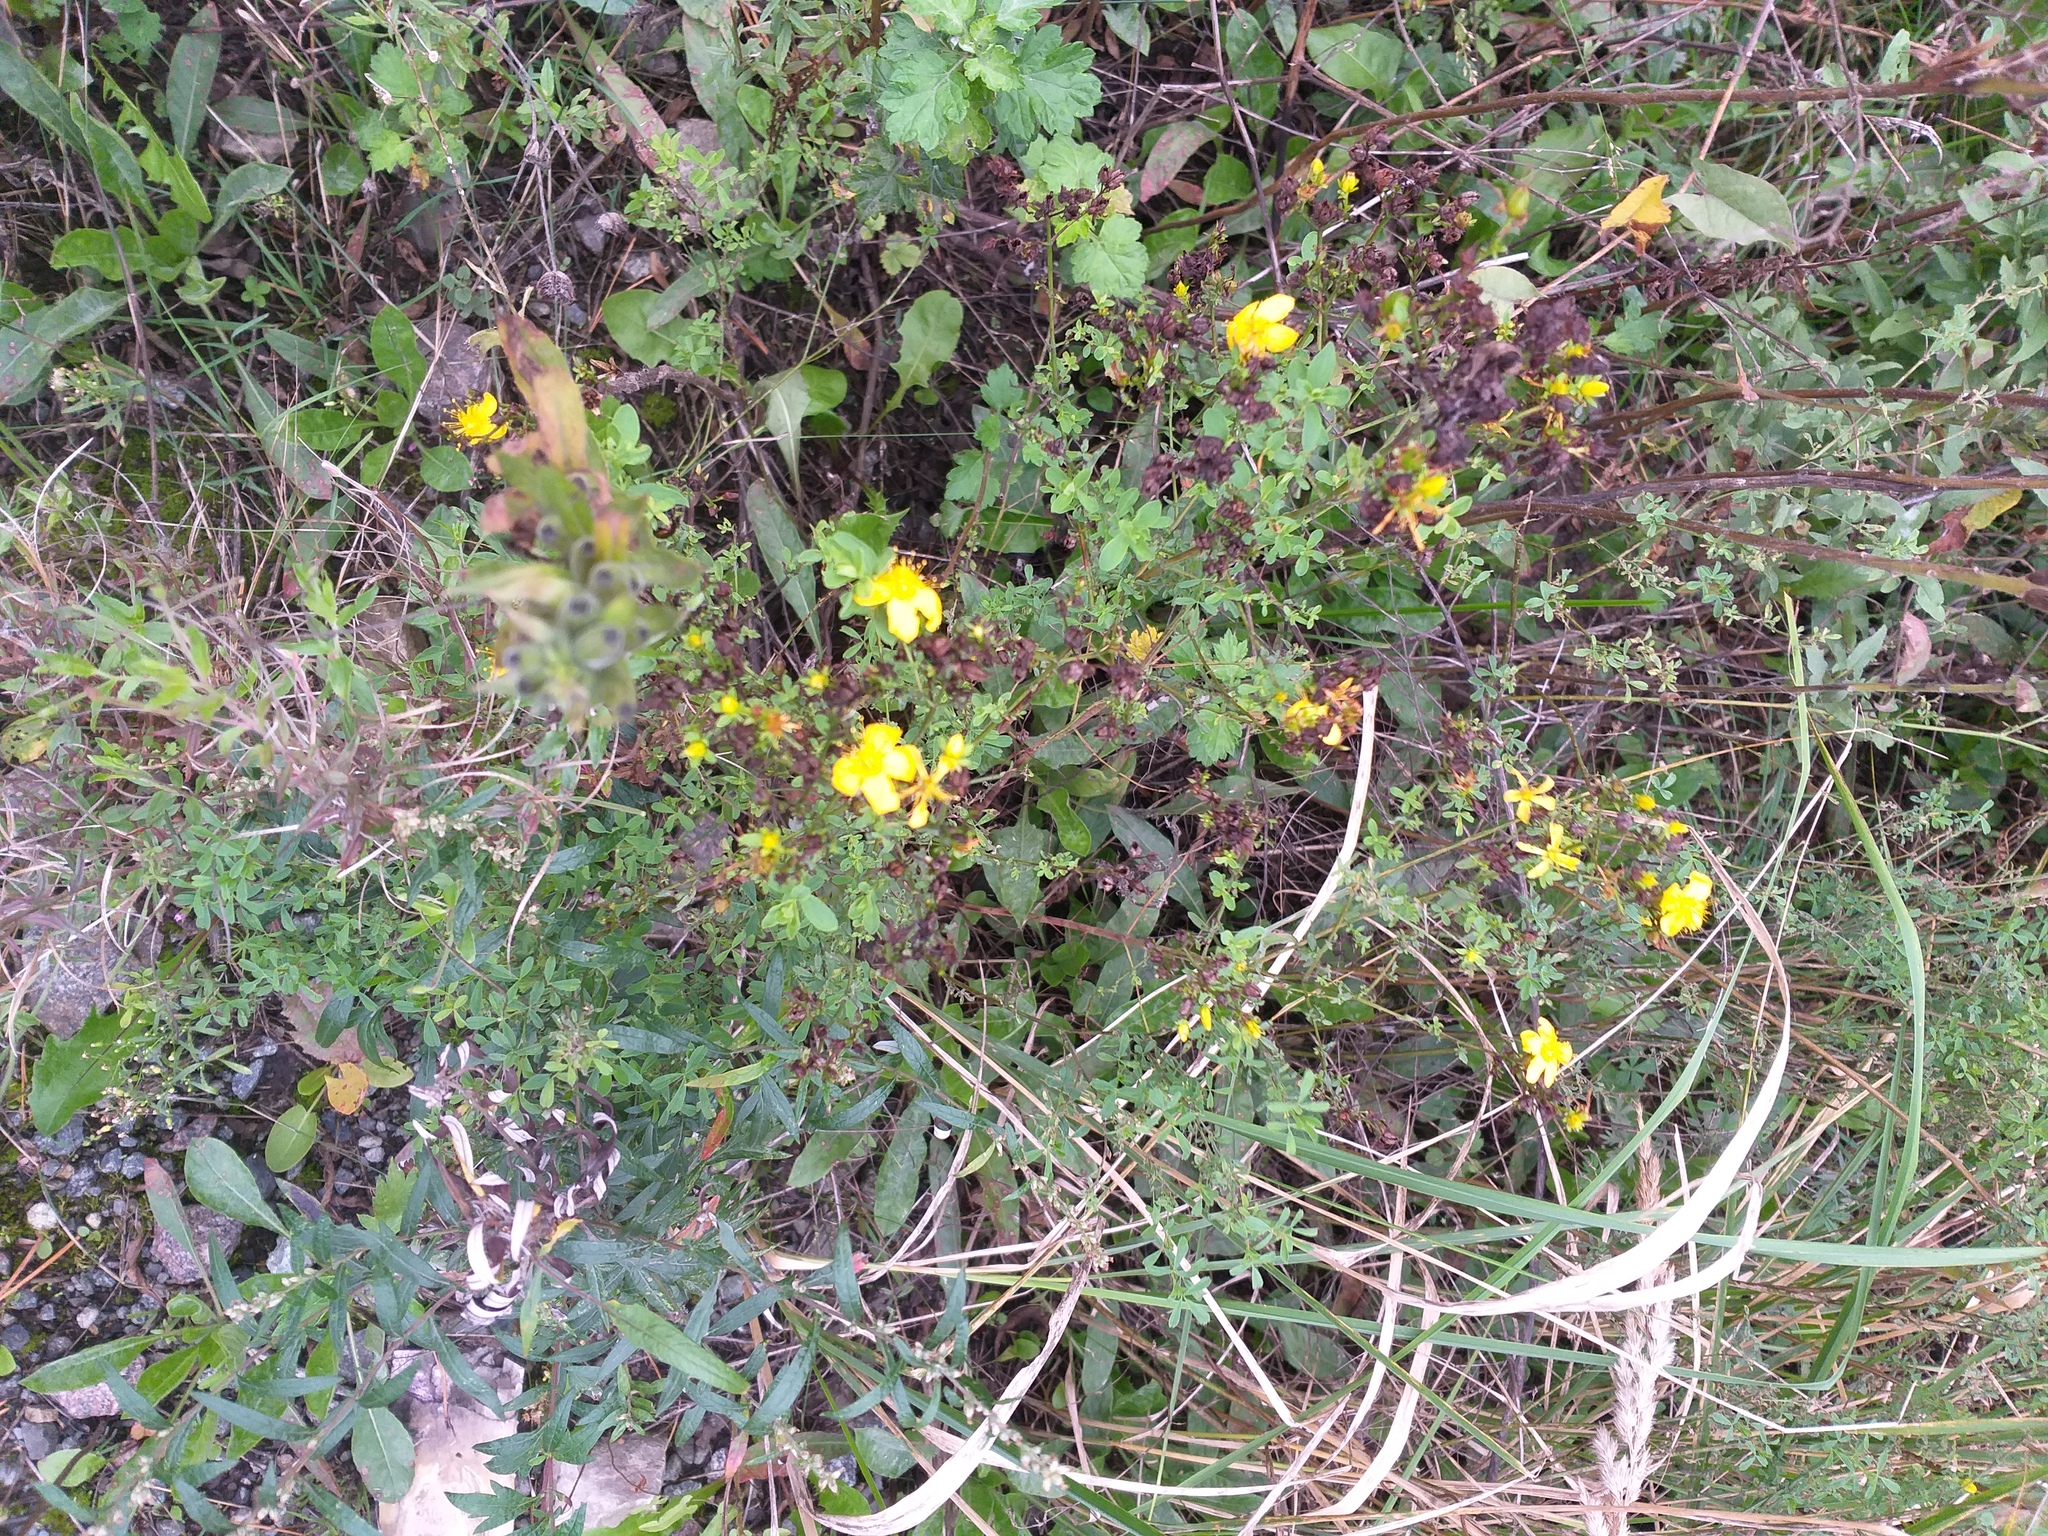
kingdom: Plantae
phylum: Tracheophyta
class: Magnoliopsida
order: Malpighiales
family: Hypericaceae
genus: Hypericum
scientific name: Hypericum perforatum
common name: Common st. johnswort
